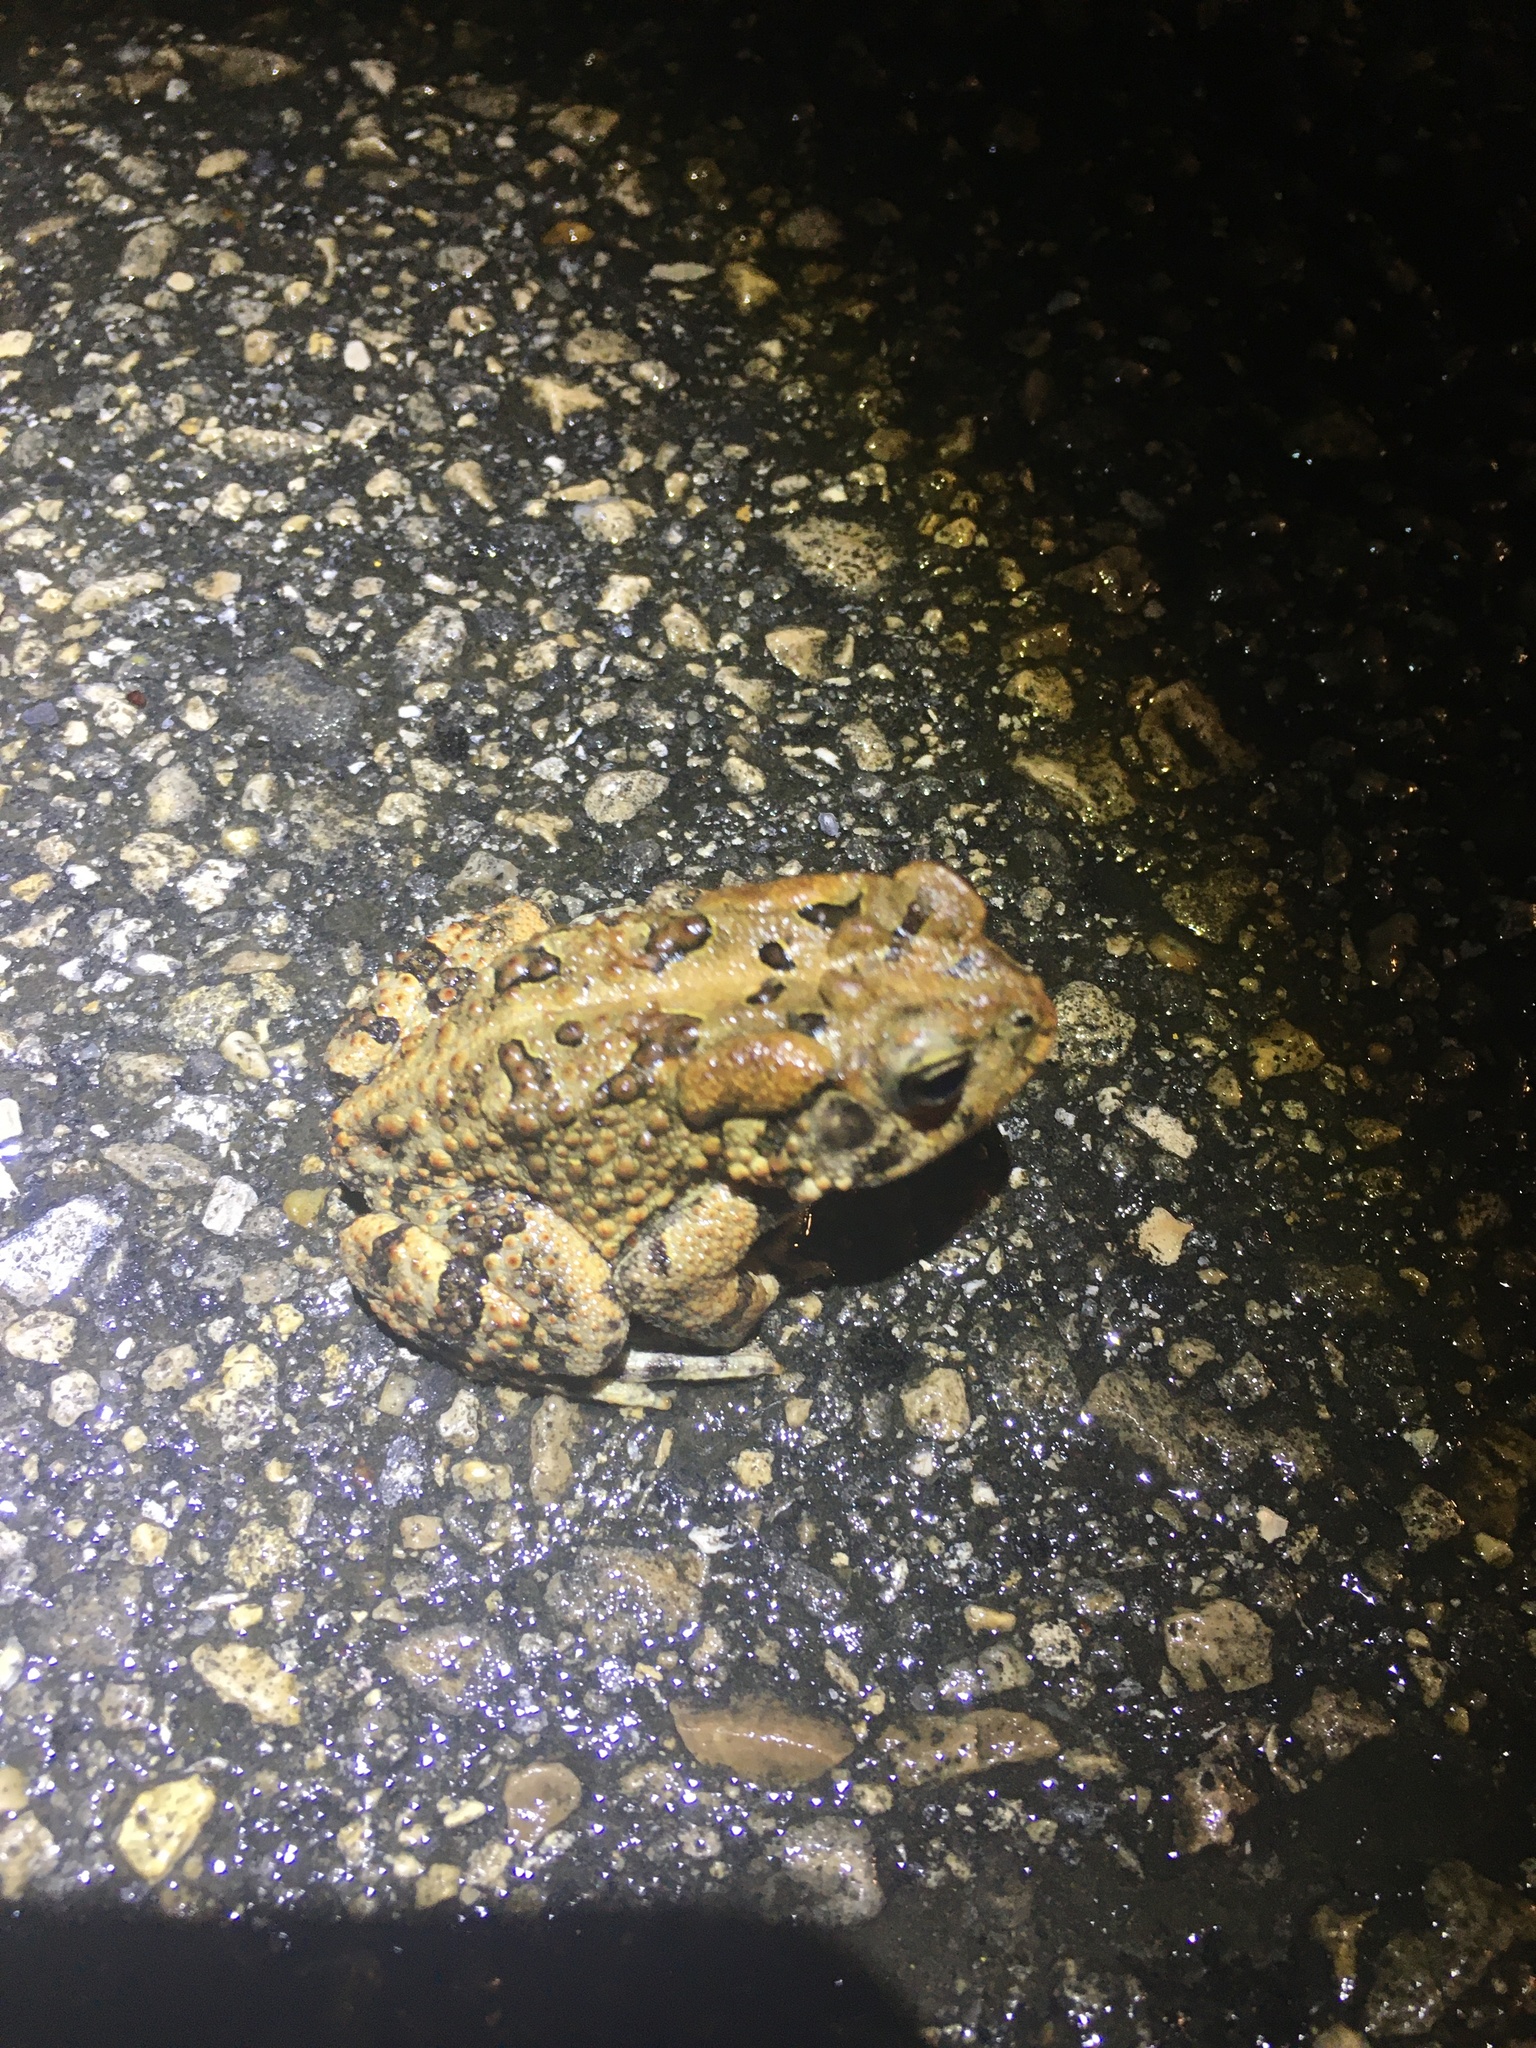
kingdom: Animalia
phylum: Chordata
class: Amphibia
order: Anura
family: Bufonidae
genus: Anaxyrus
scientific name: Anaxyrus terrestris
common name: Southern toad
